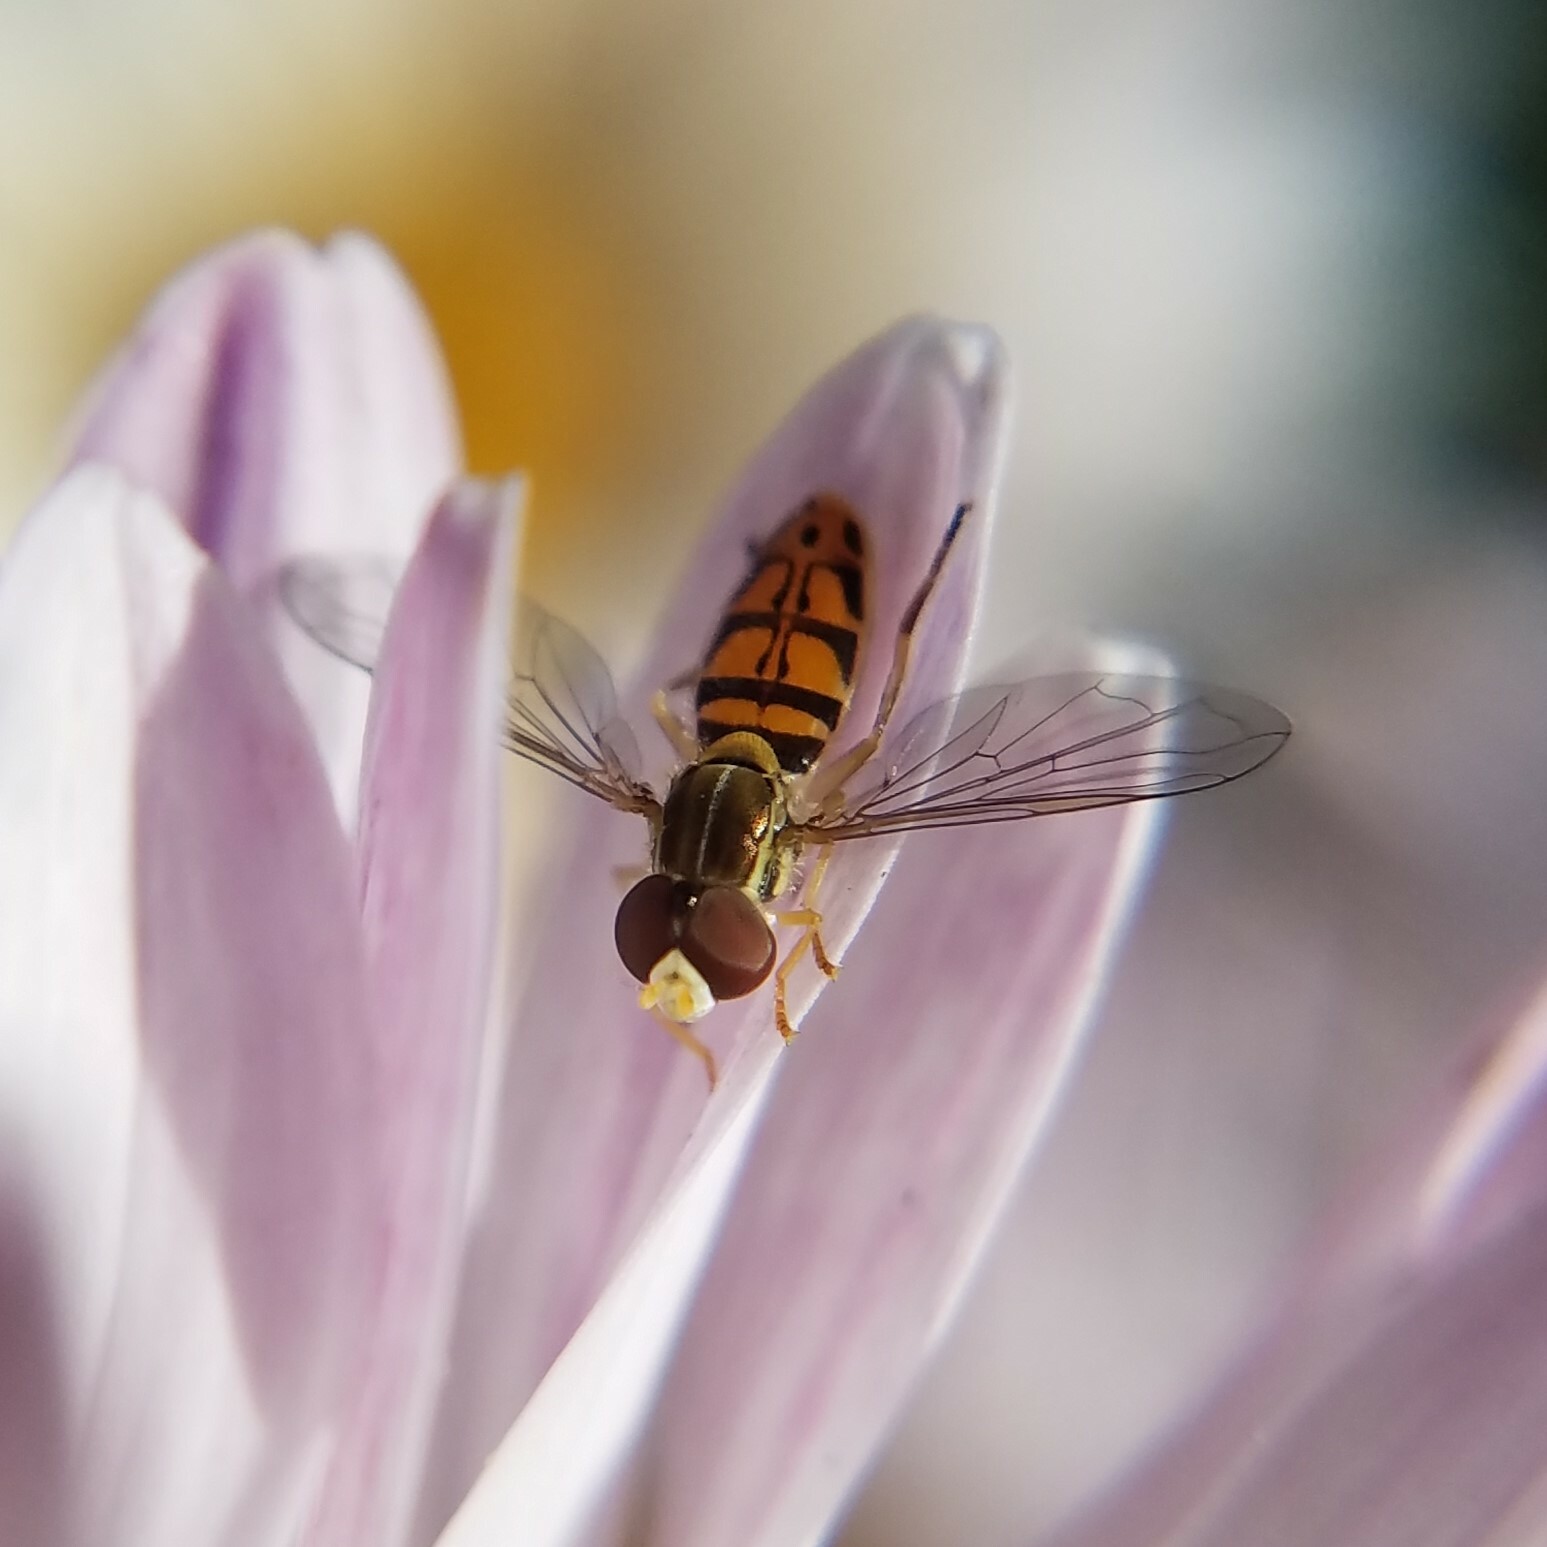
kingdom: Animalia
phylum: Arthropoda
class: Insecta
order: Diptera
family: Syrphidae
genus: Toxomerus
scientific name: Toxomerus marginatus
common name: Syrphid fly
